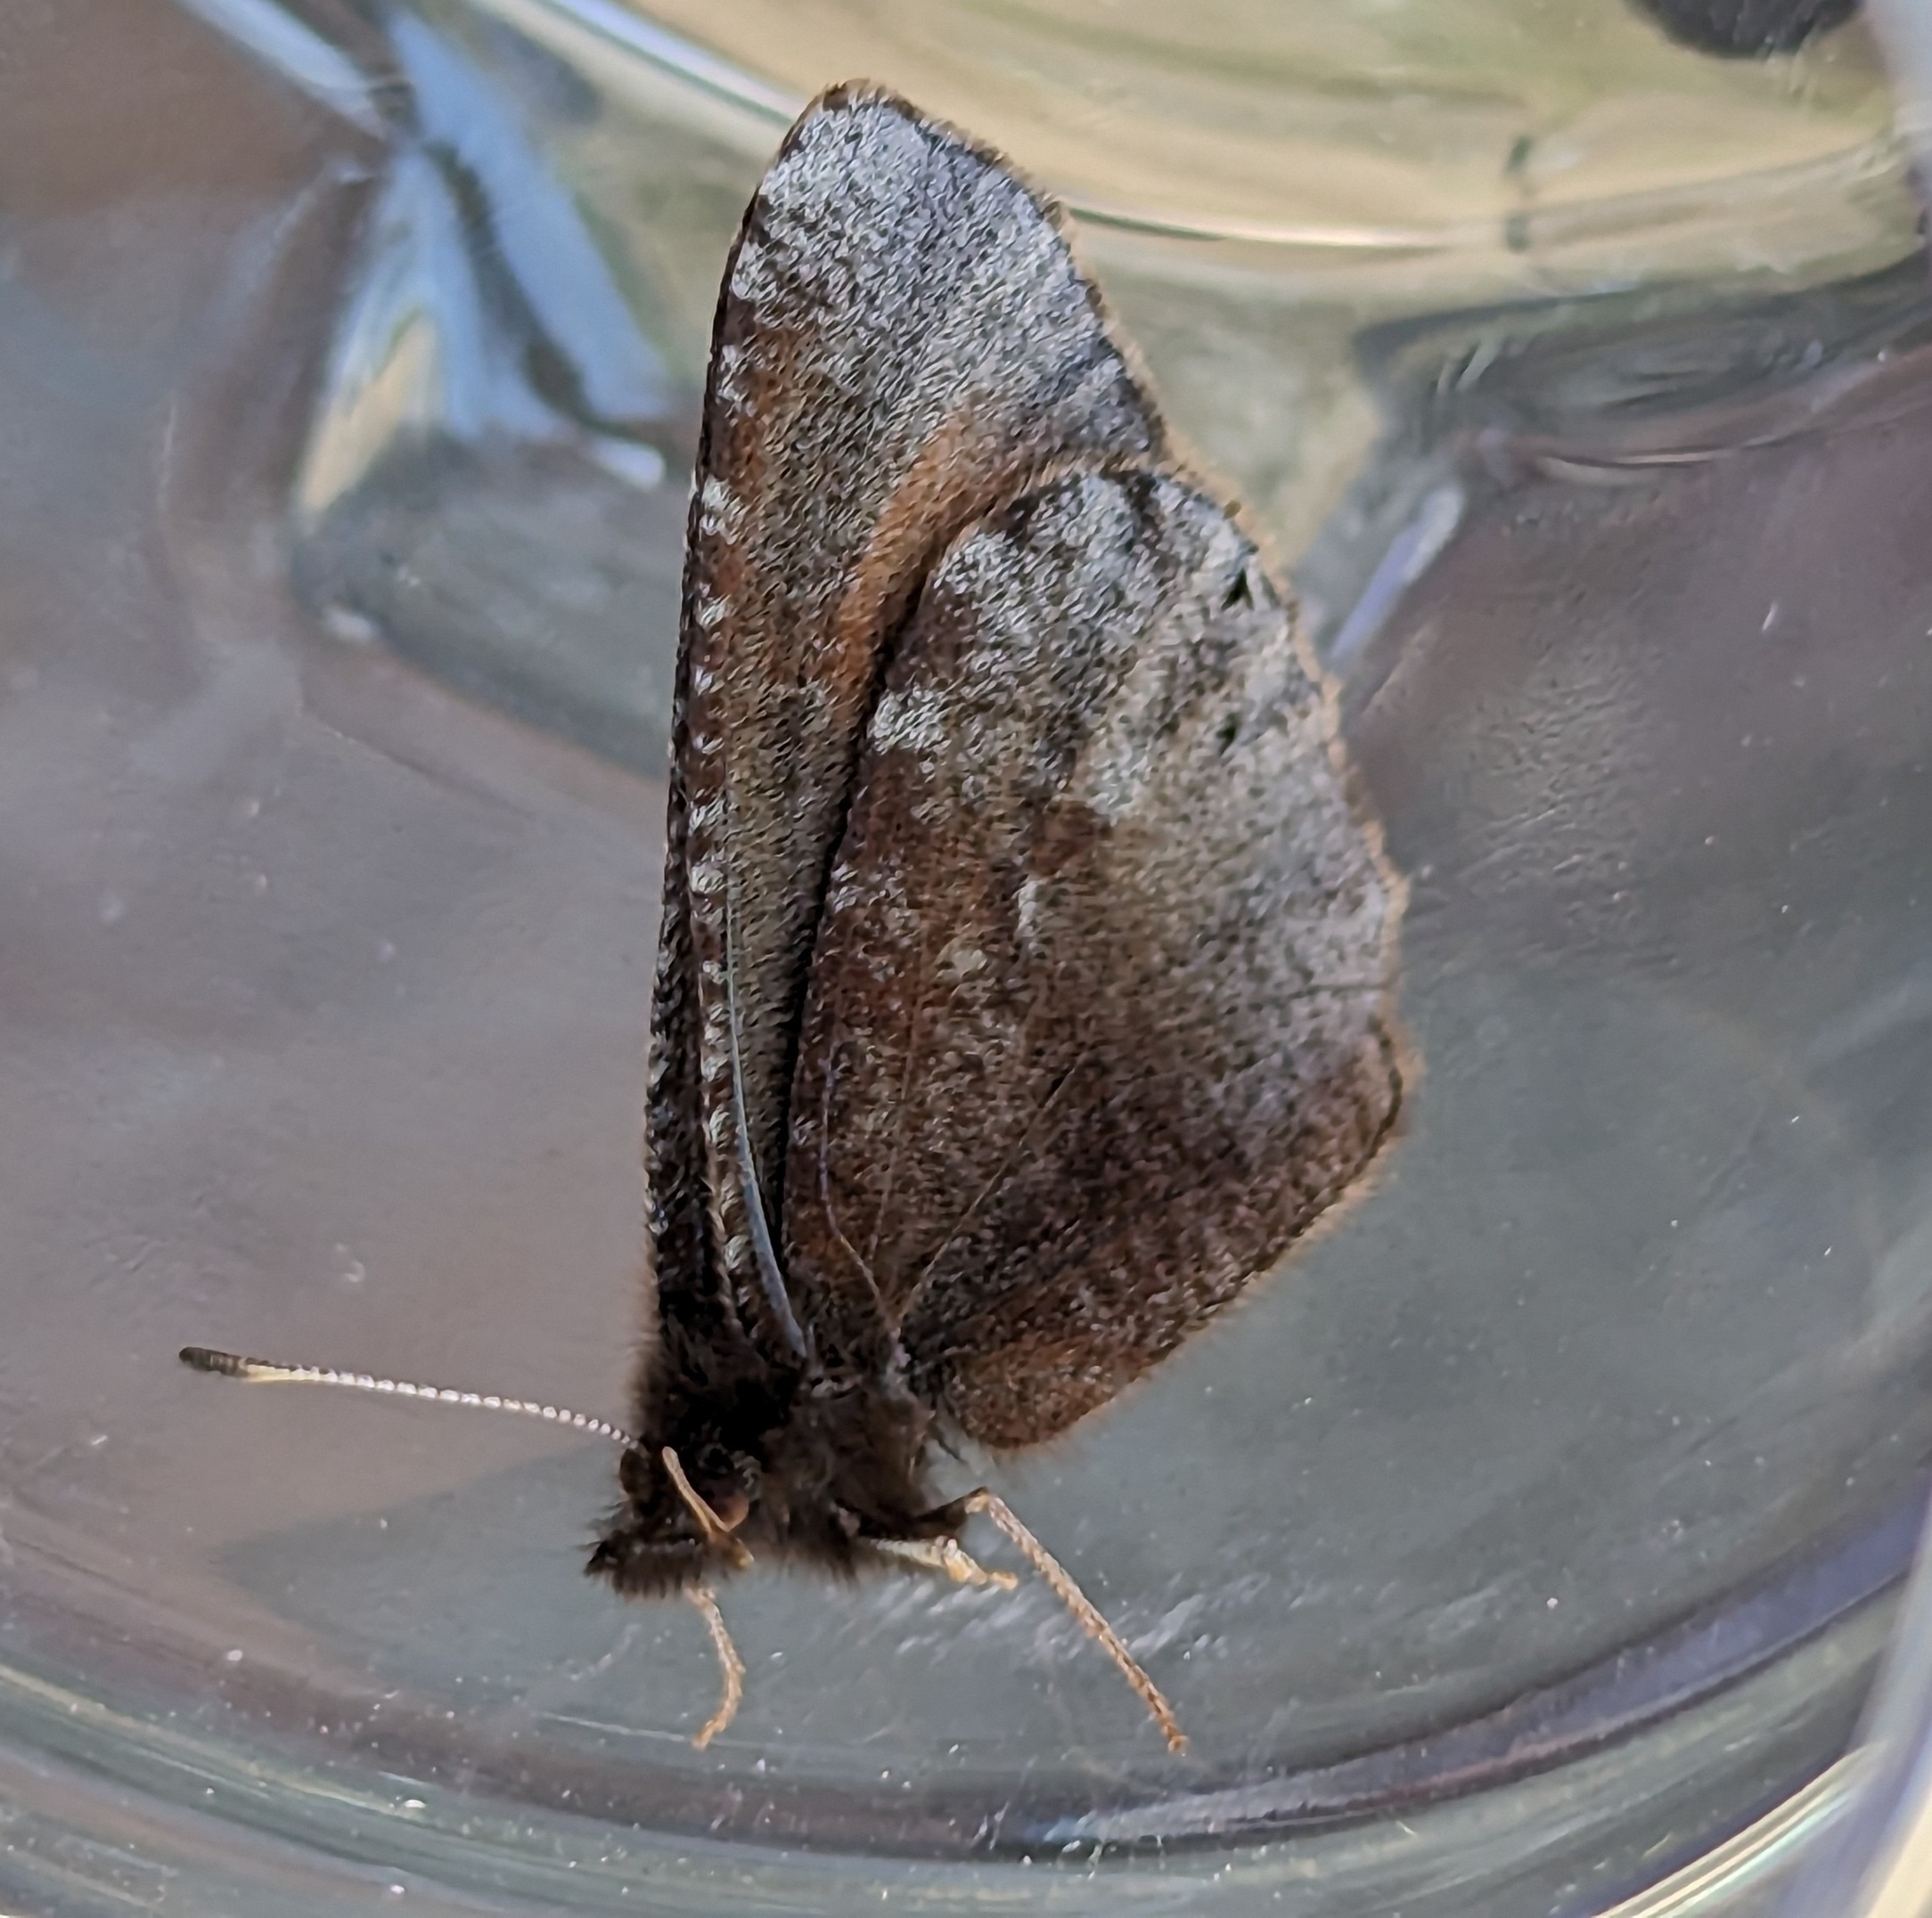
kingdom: Animalia
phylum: Arthropoda
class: Insecta
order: Lepidoptera
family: Nymphalidae
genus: Erebia
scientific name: Erebia discoidalis
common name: Red-disked alpine
